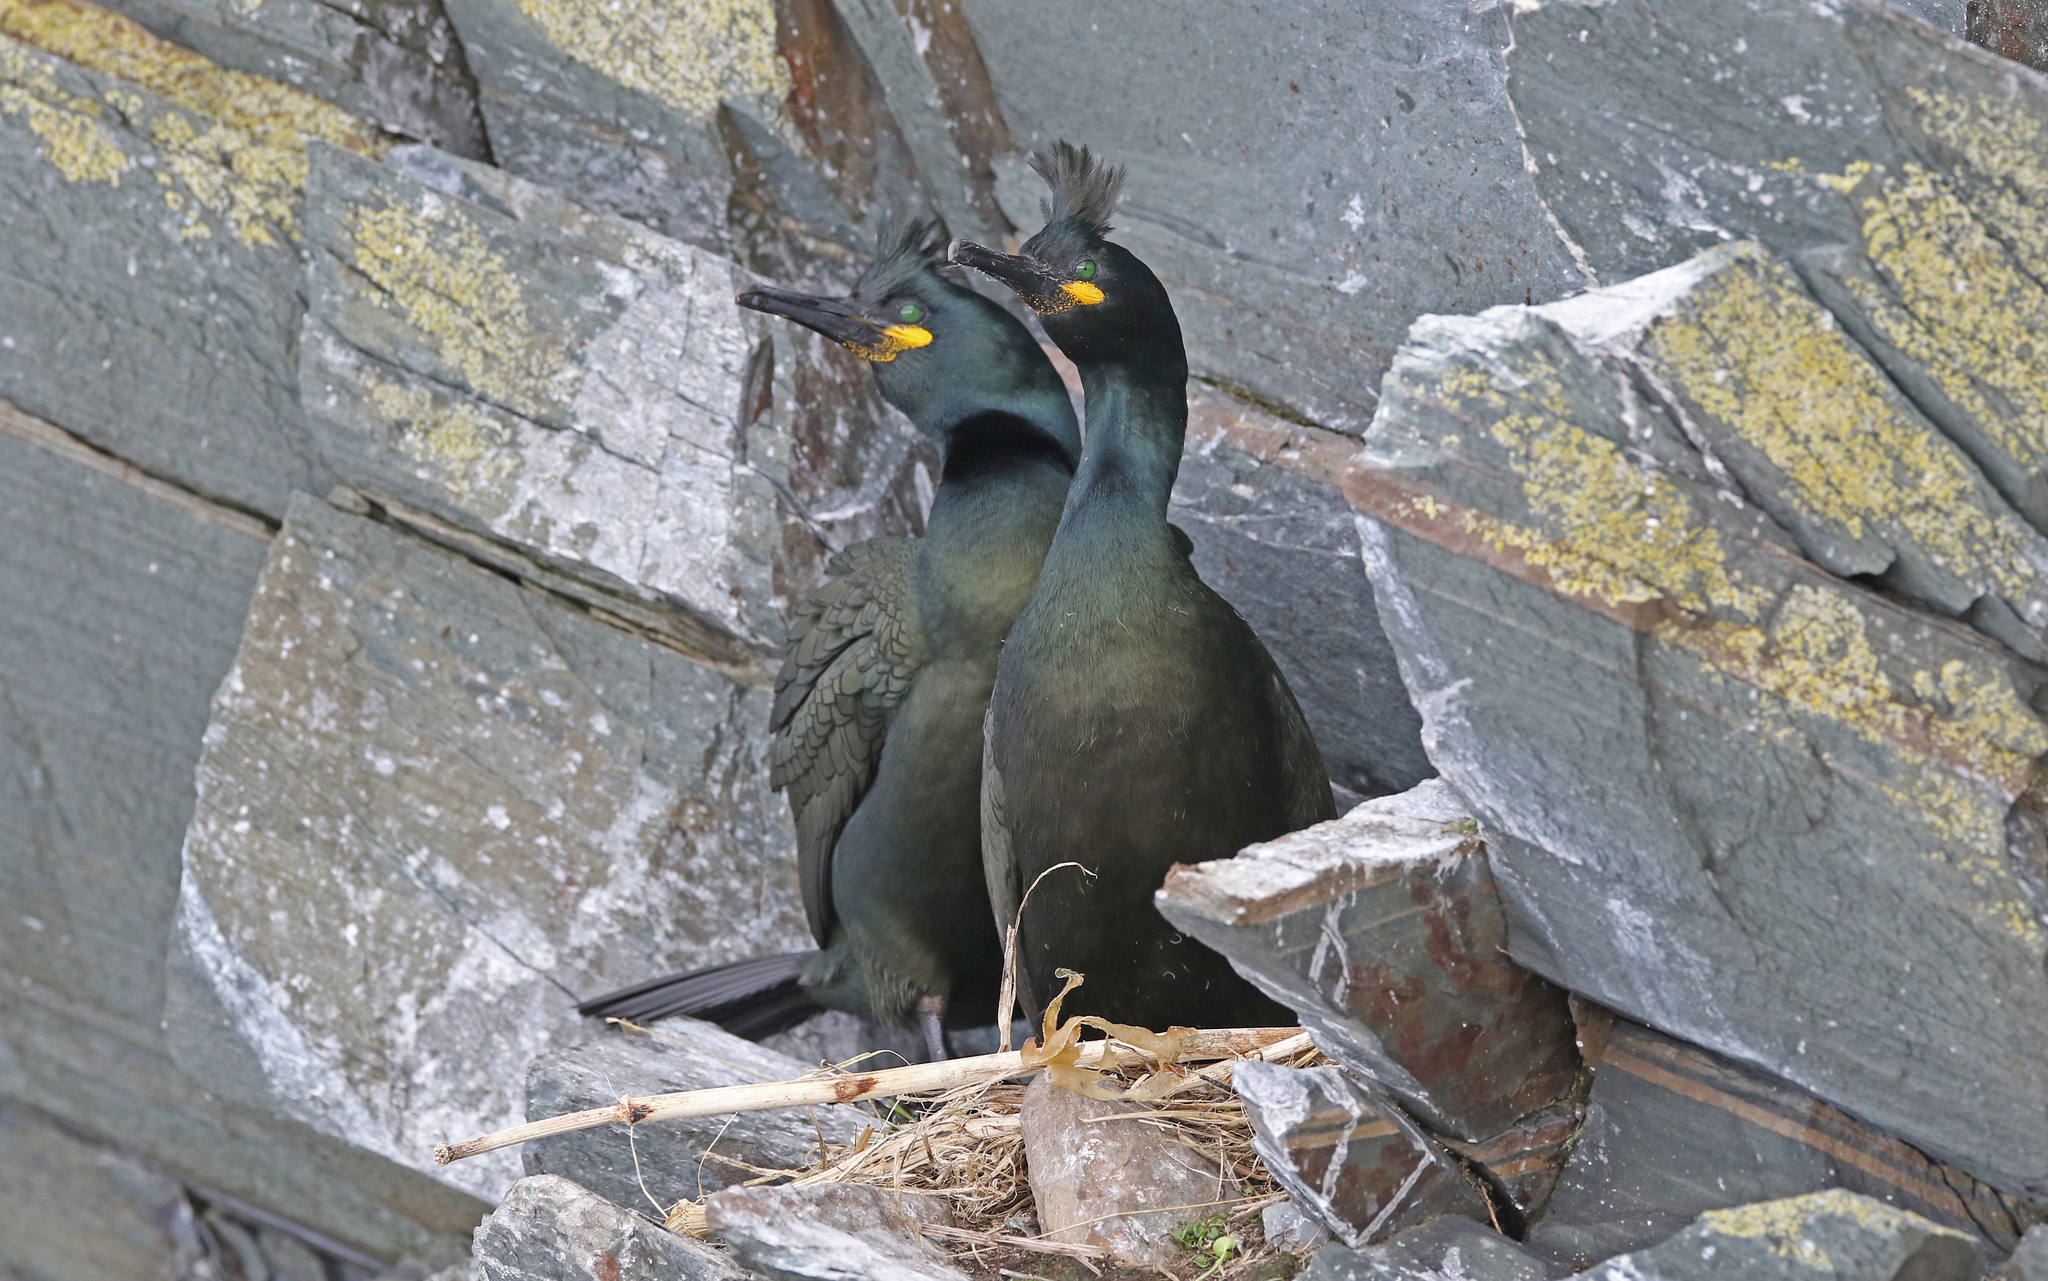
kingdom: Animalia
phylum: Chordata
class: Aves
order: Suliformes
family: Phalacrocoracidae
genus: Phalacrocorax
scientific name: Phalacrocorax aristotelis
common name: European shag
